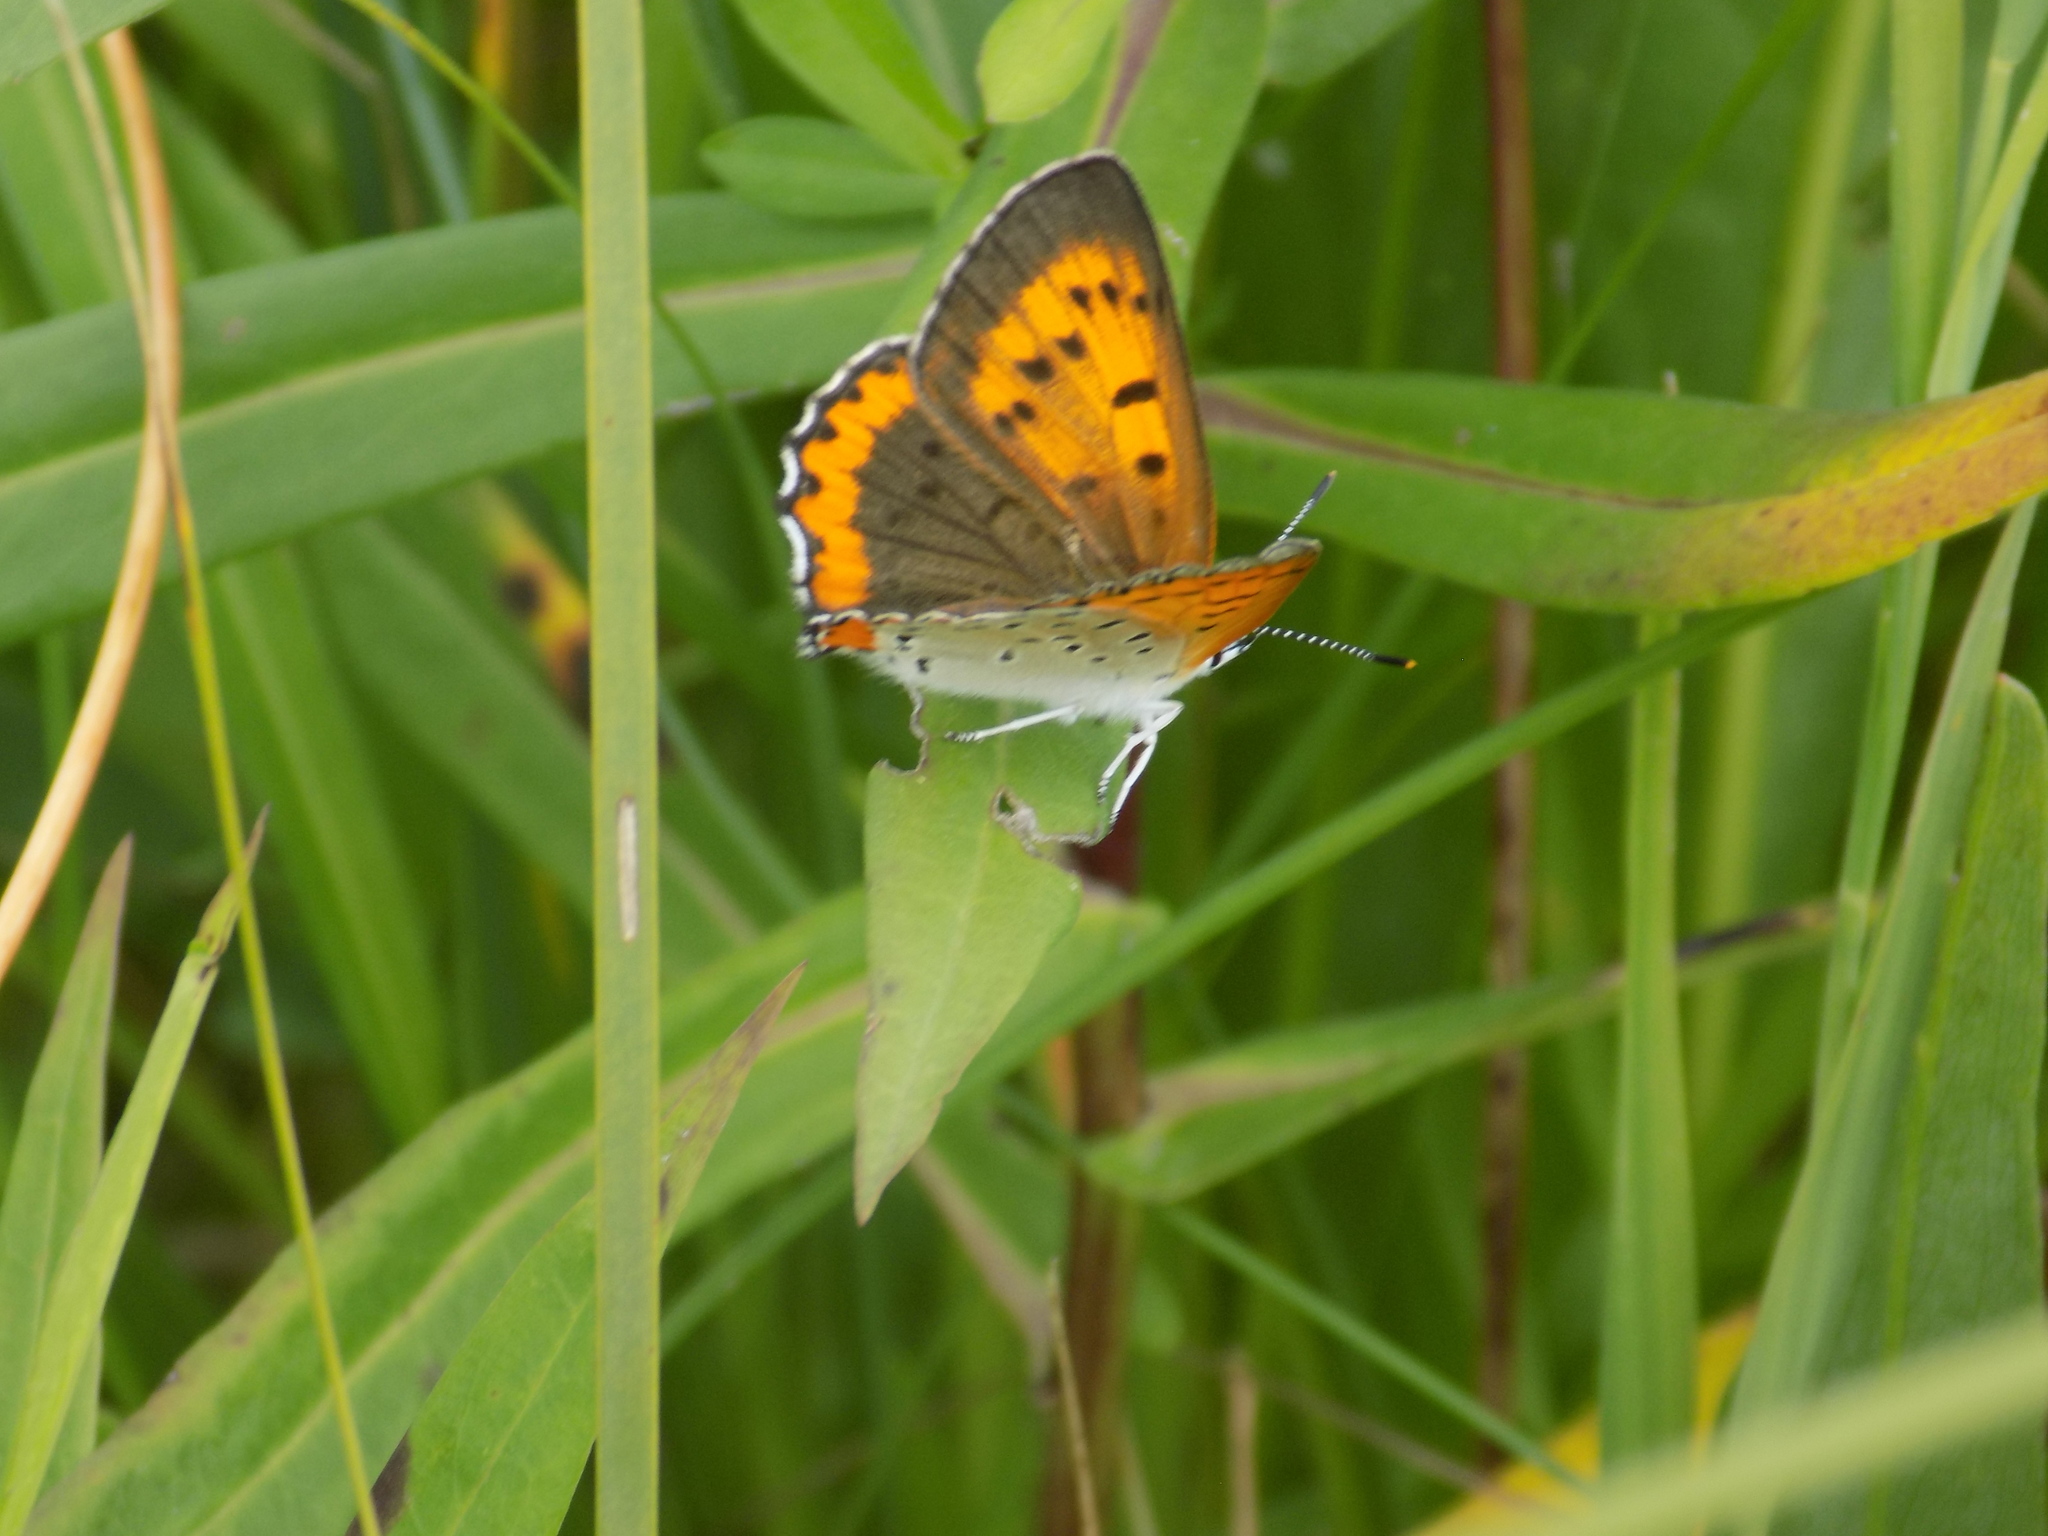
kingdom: Animalia
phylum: Arthropoda
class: Insecta
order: Lepidoptera
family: Lycaenidae
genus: Tharsalea
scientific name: Tharsalea hyllus
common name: Bronze copper
